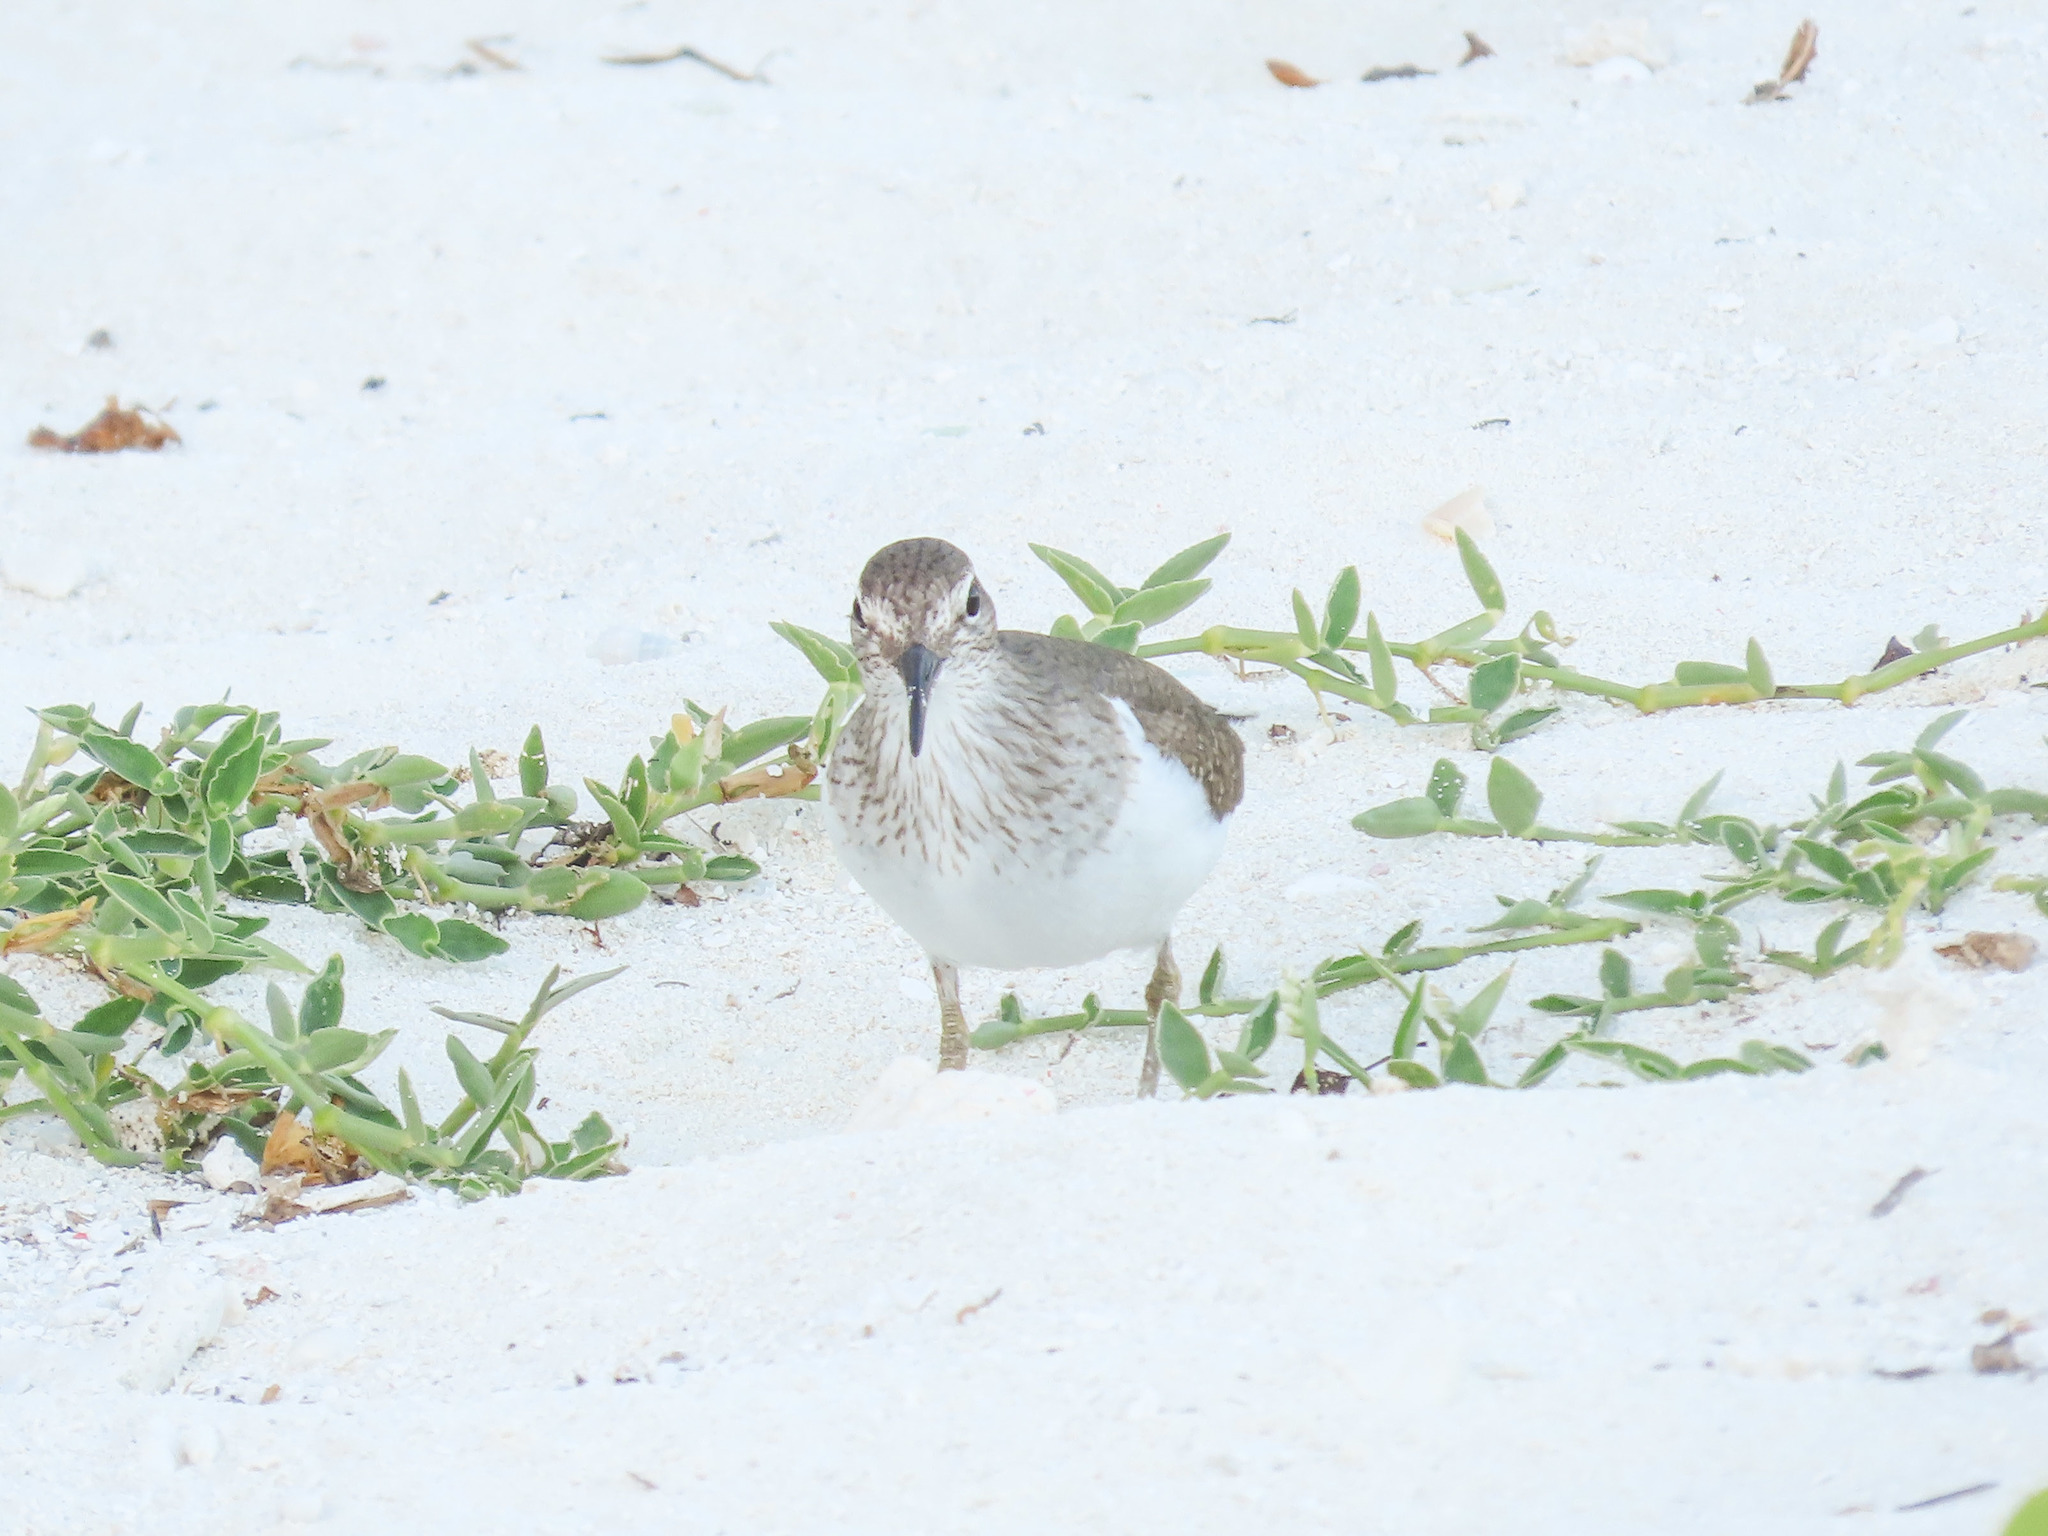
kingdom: Animalia
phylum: Chordata
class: Aves
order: Charadriiformes
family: Scolopacidae
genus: Actitis
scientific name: Actitis hypoleucos
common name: Common sandpiper
